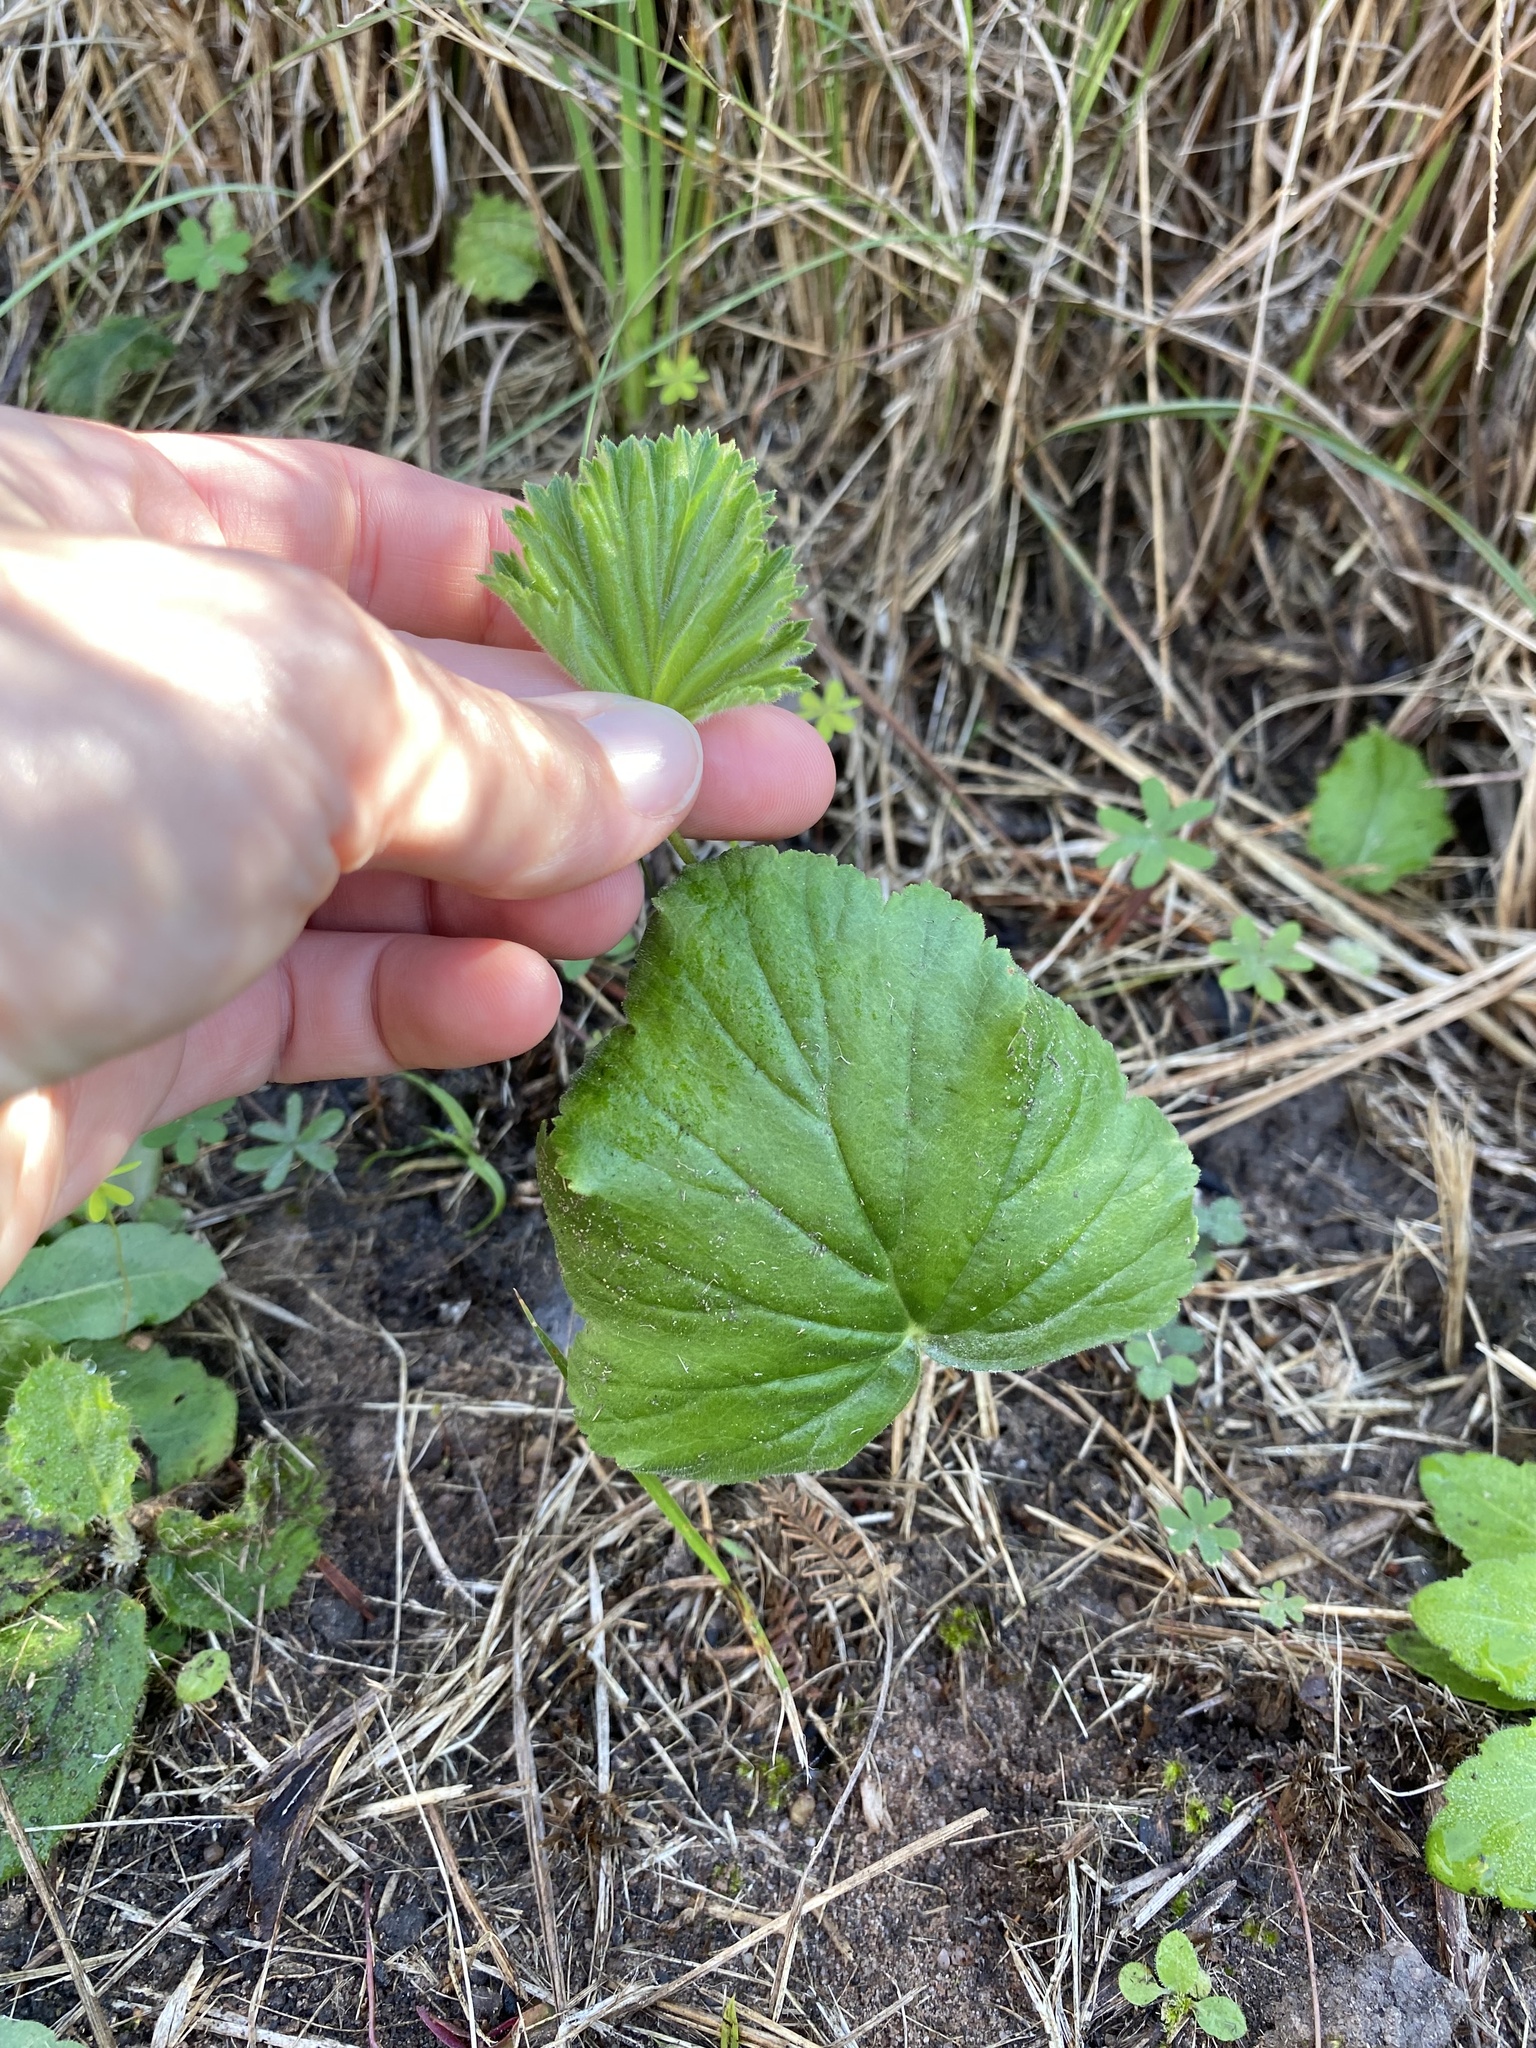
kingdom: Plantae
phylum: Tracheophyta
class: Magnoliopsida
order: Geraniales
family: Geraniaceae
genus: Pelargonium
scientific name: Pelargonium luridum
